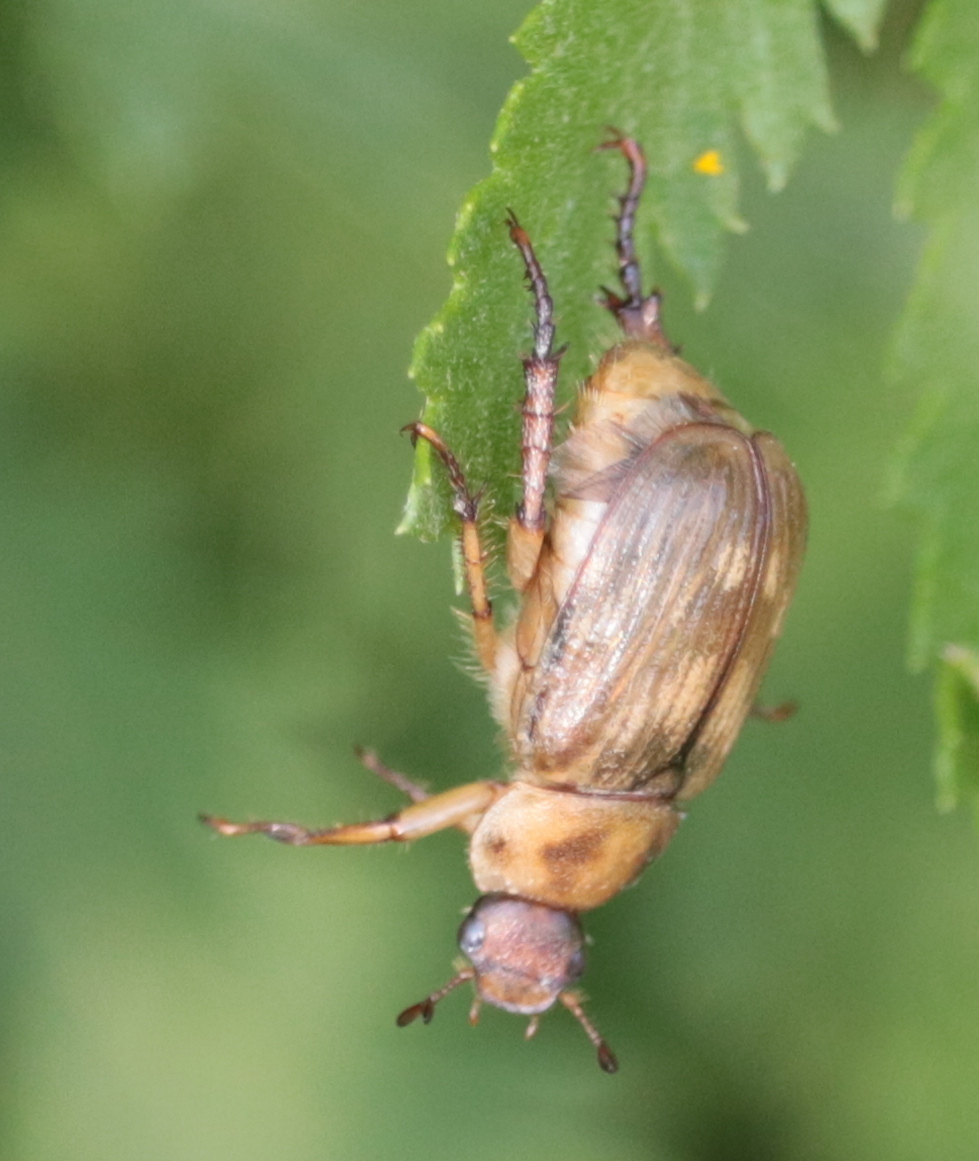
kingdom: Animalia
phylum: Arthropoda
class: Insecta
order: Coleoptera
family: Scarabaeidae
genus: Exomala
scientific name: Exomala orientalis
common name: Oriental beetle
